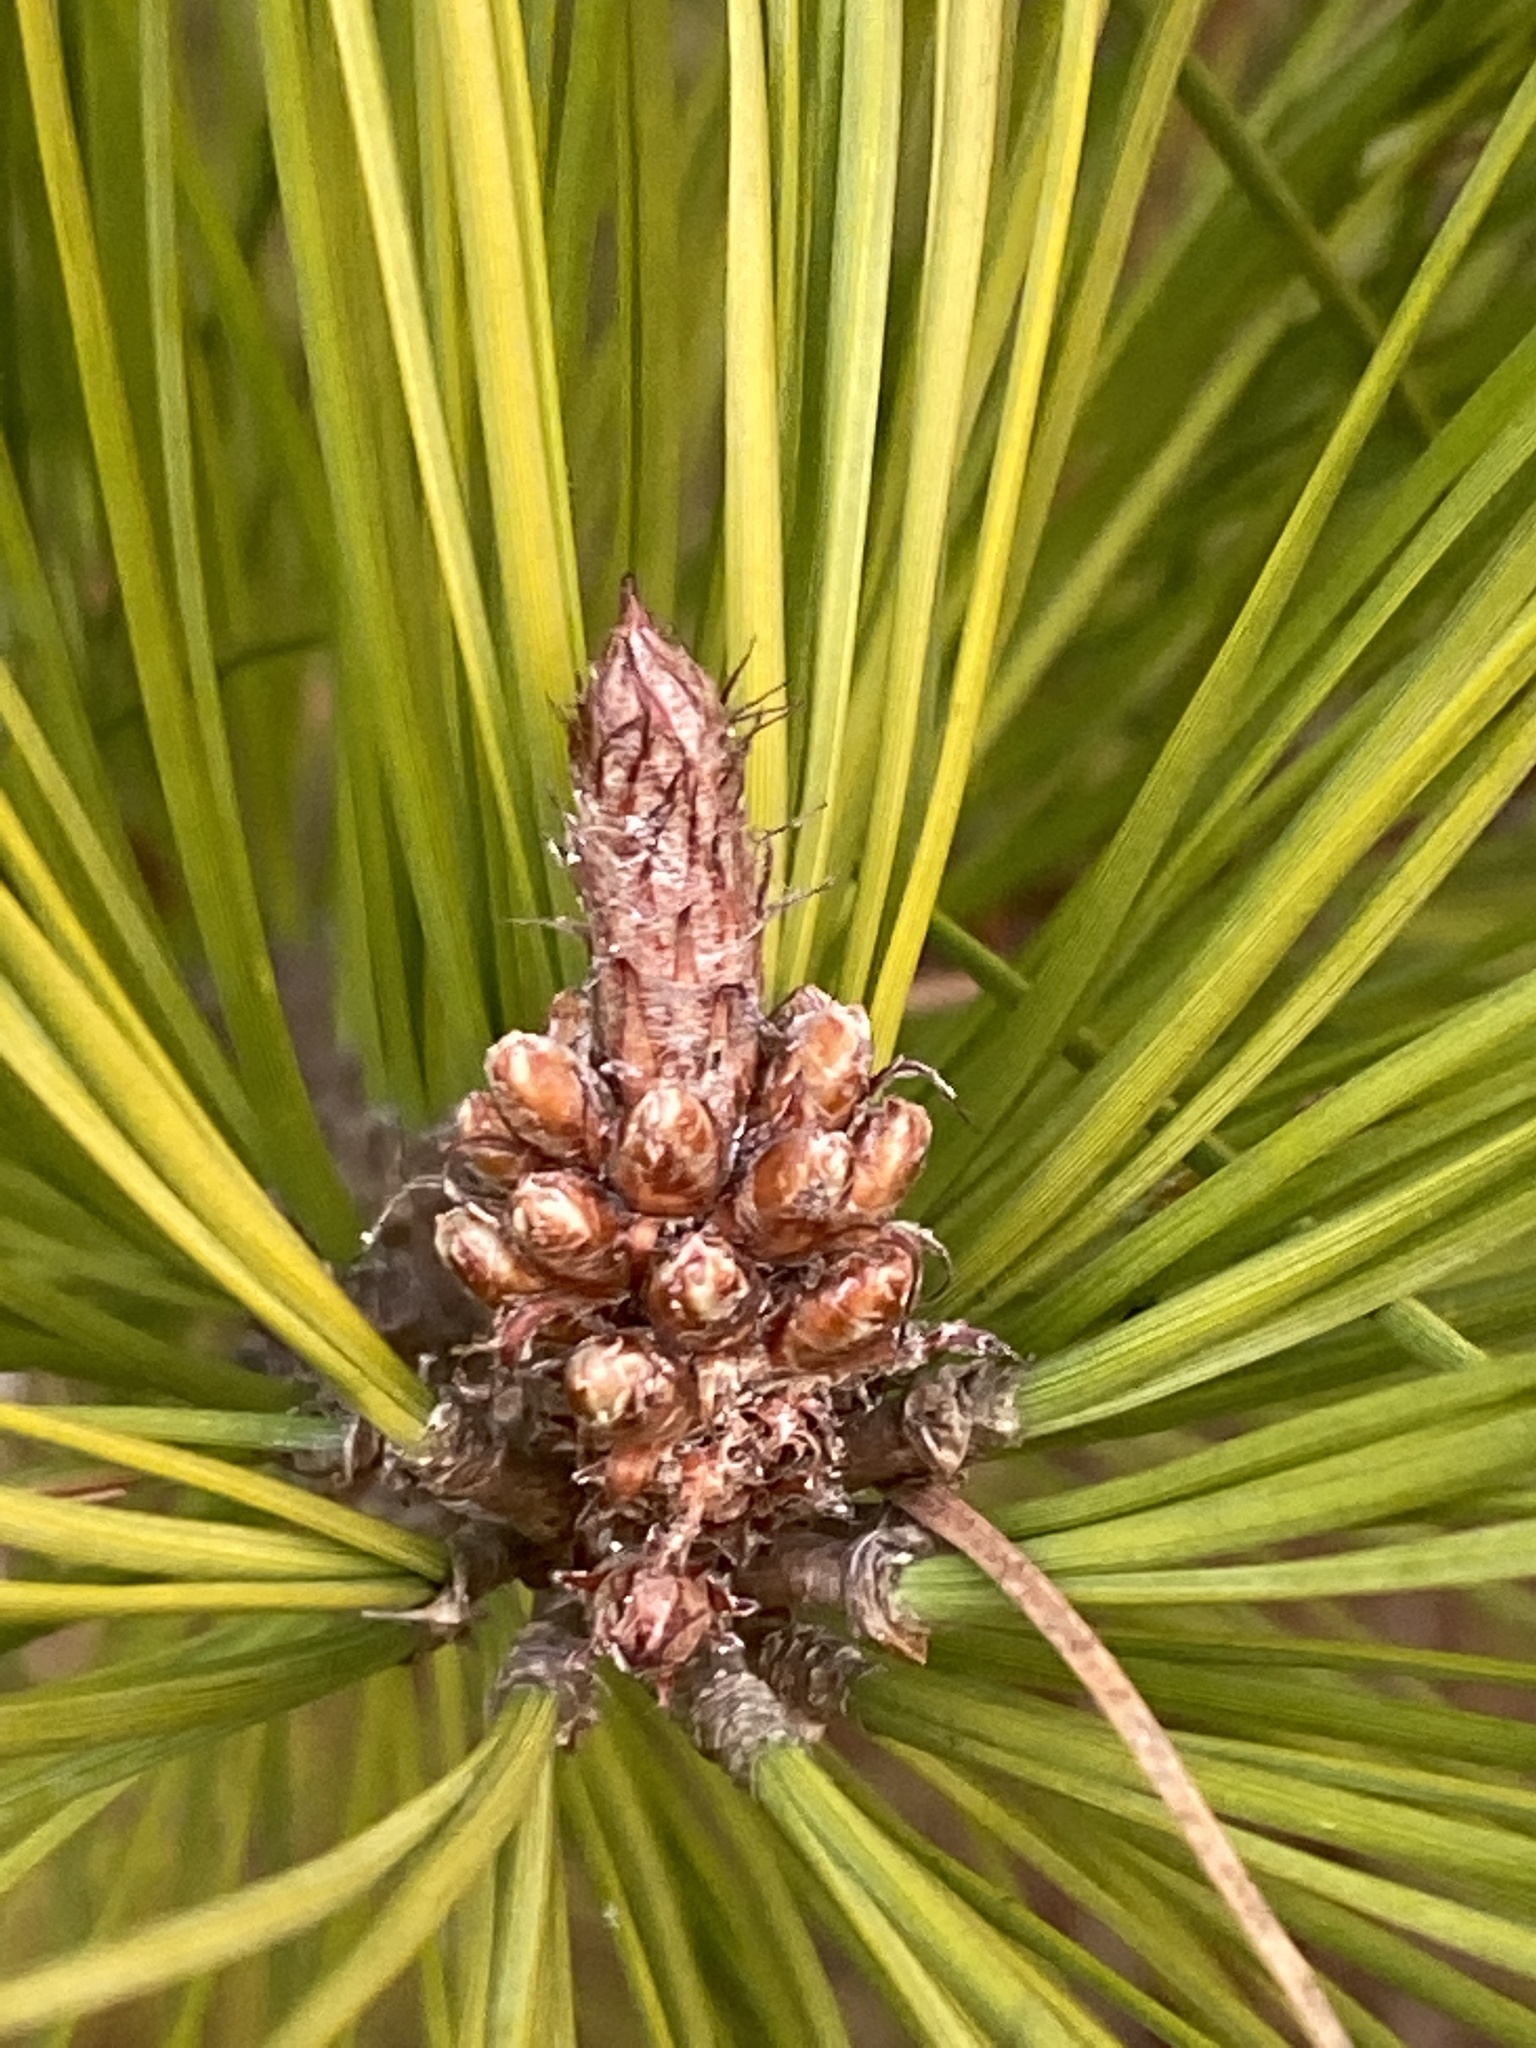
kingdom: Plantae
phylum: Tracheophyta
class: Pinopsida
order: Pinales
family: Pinaceae
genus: Pinus
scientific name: Pinus taeda
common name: Loblolly pine
